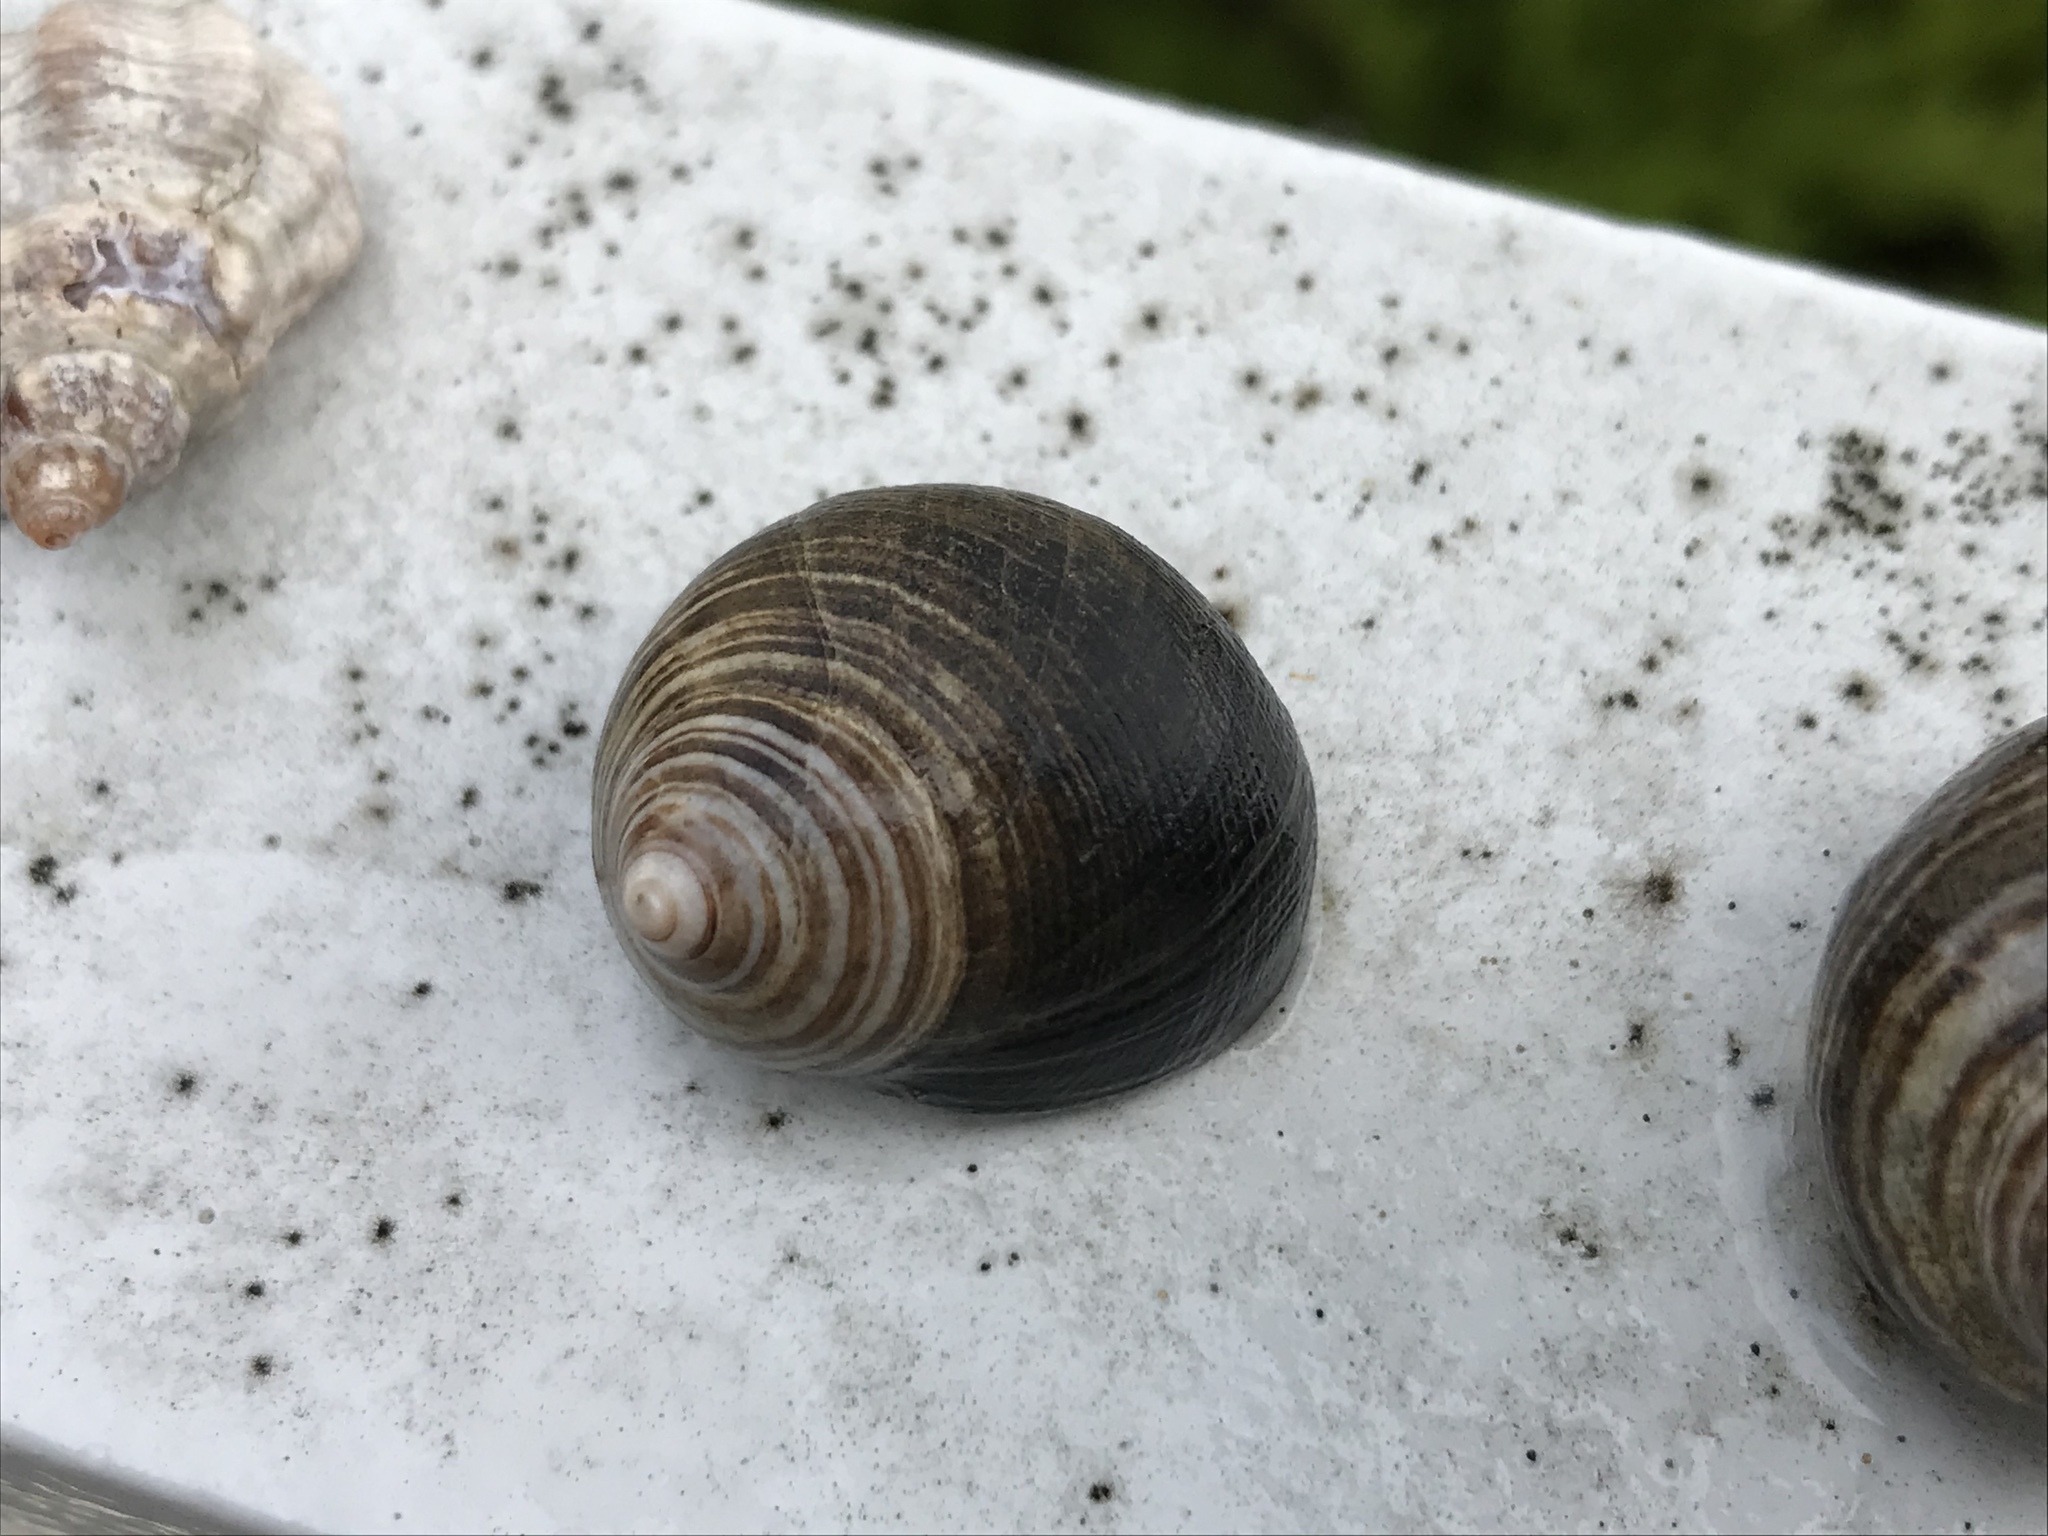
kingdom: Animalia
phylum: Mollusca
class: Gastropoda
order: Littorinimorpha
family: Littorinidae
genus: Littorina
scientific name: Littorina littorea
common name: Common periwinkle
